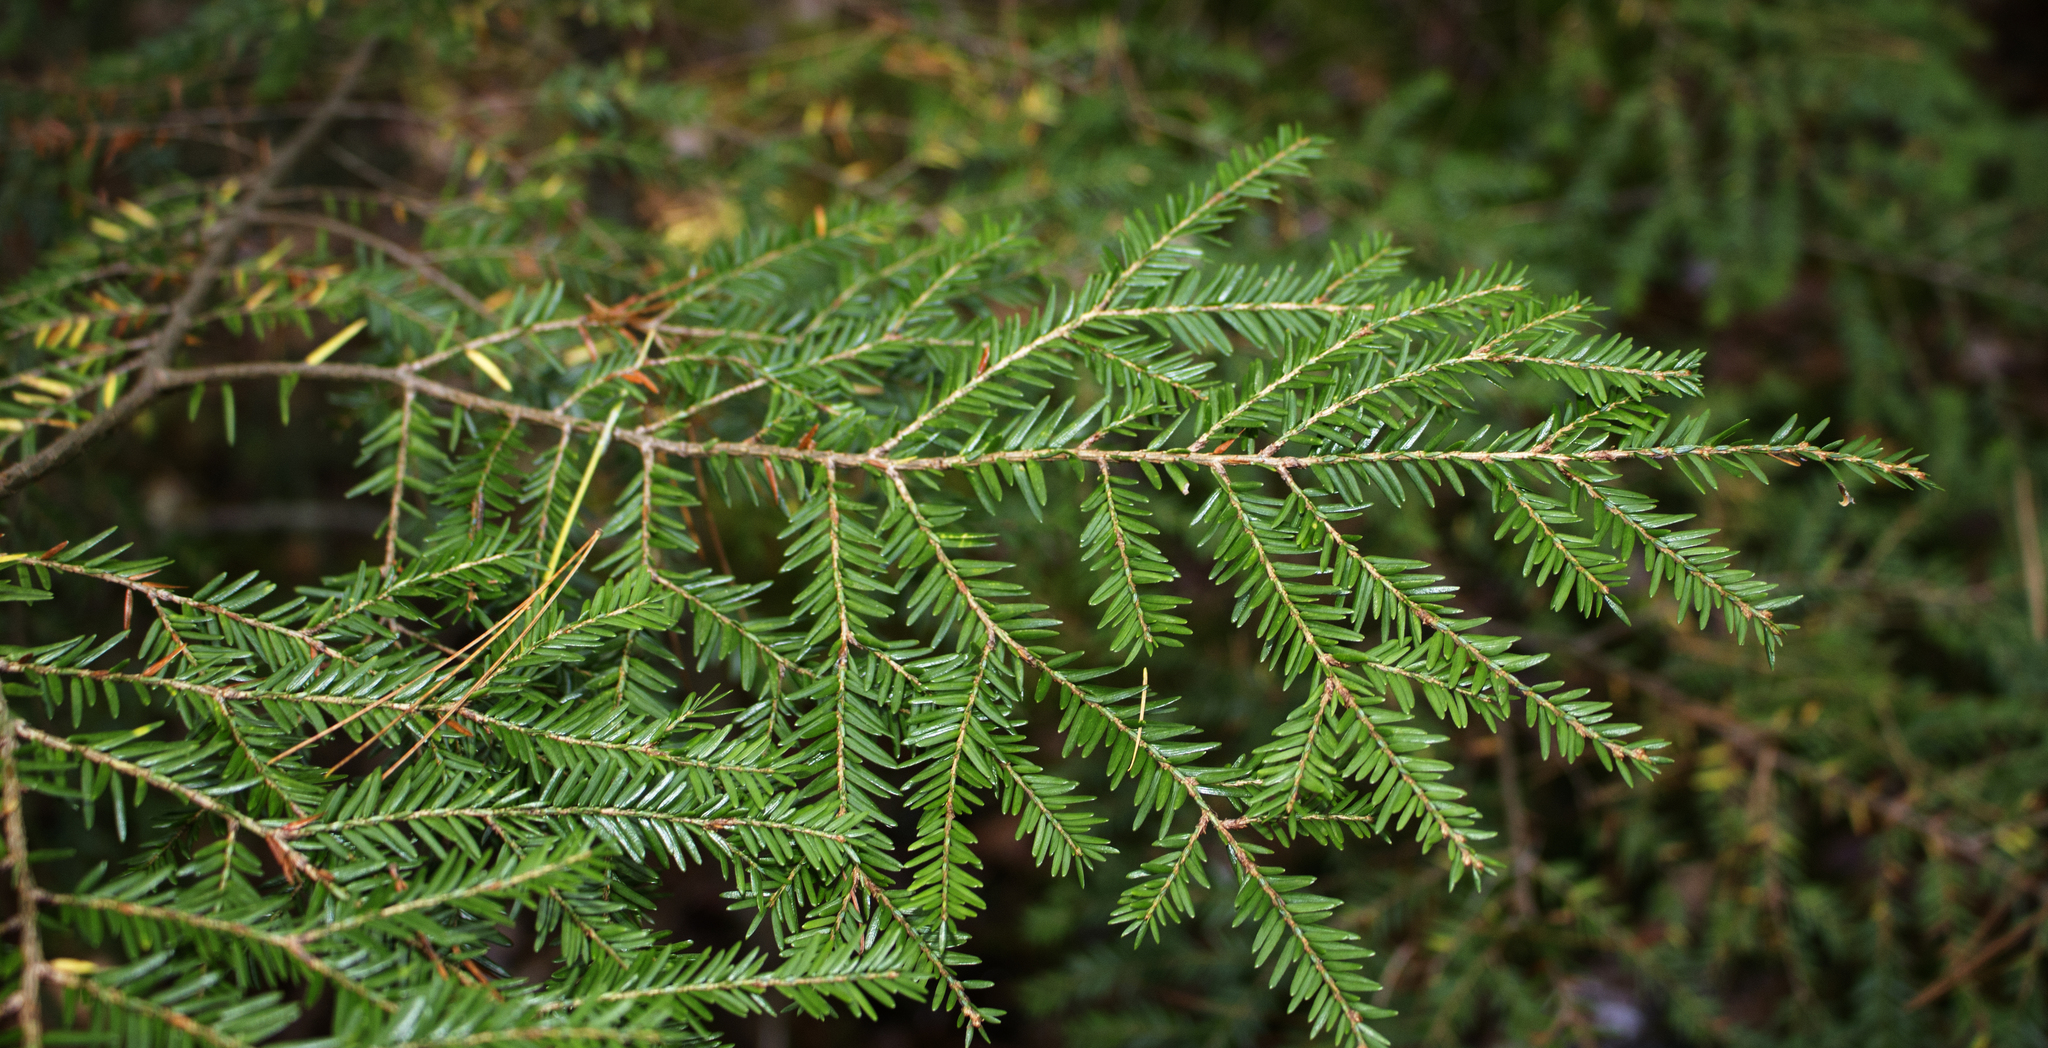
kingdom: Plantae
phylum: Tracheophyta
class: Pinopsida
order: Pinales
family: Pinaceae
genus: Tsuga
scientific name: Tsuga canadensis
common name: Eastern hemlock
